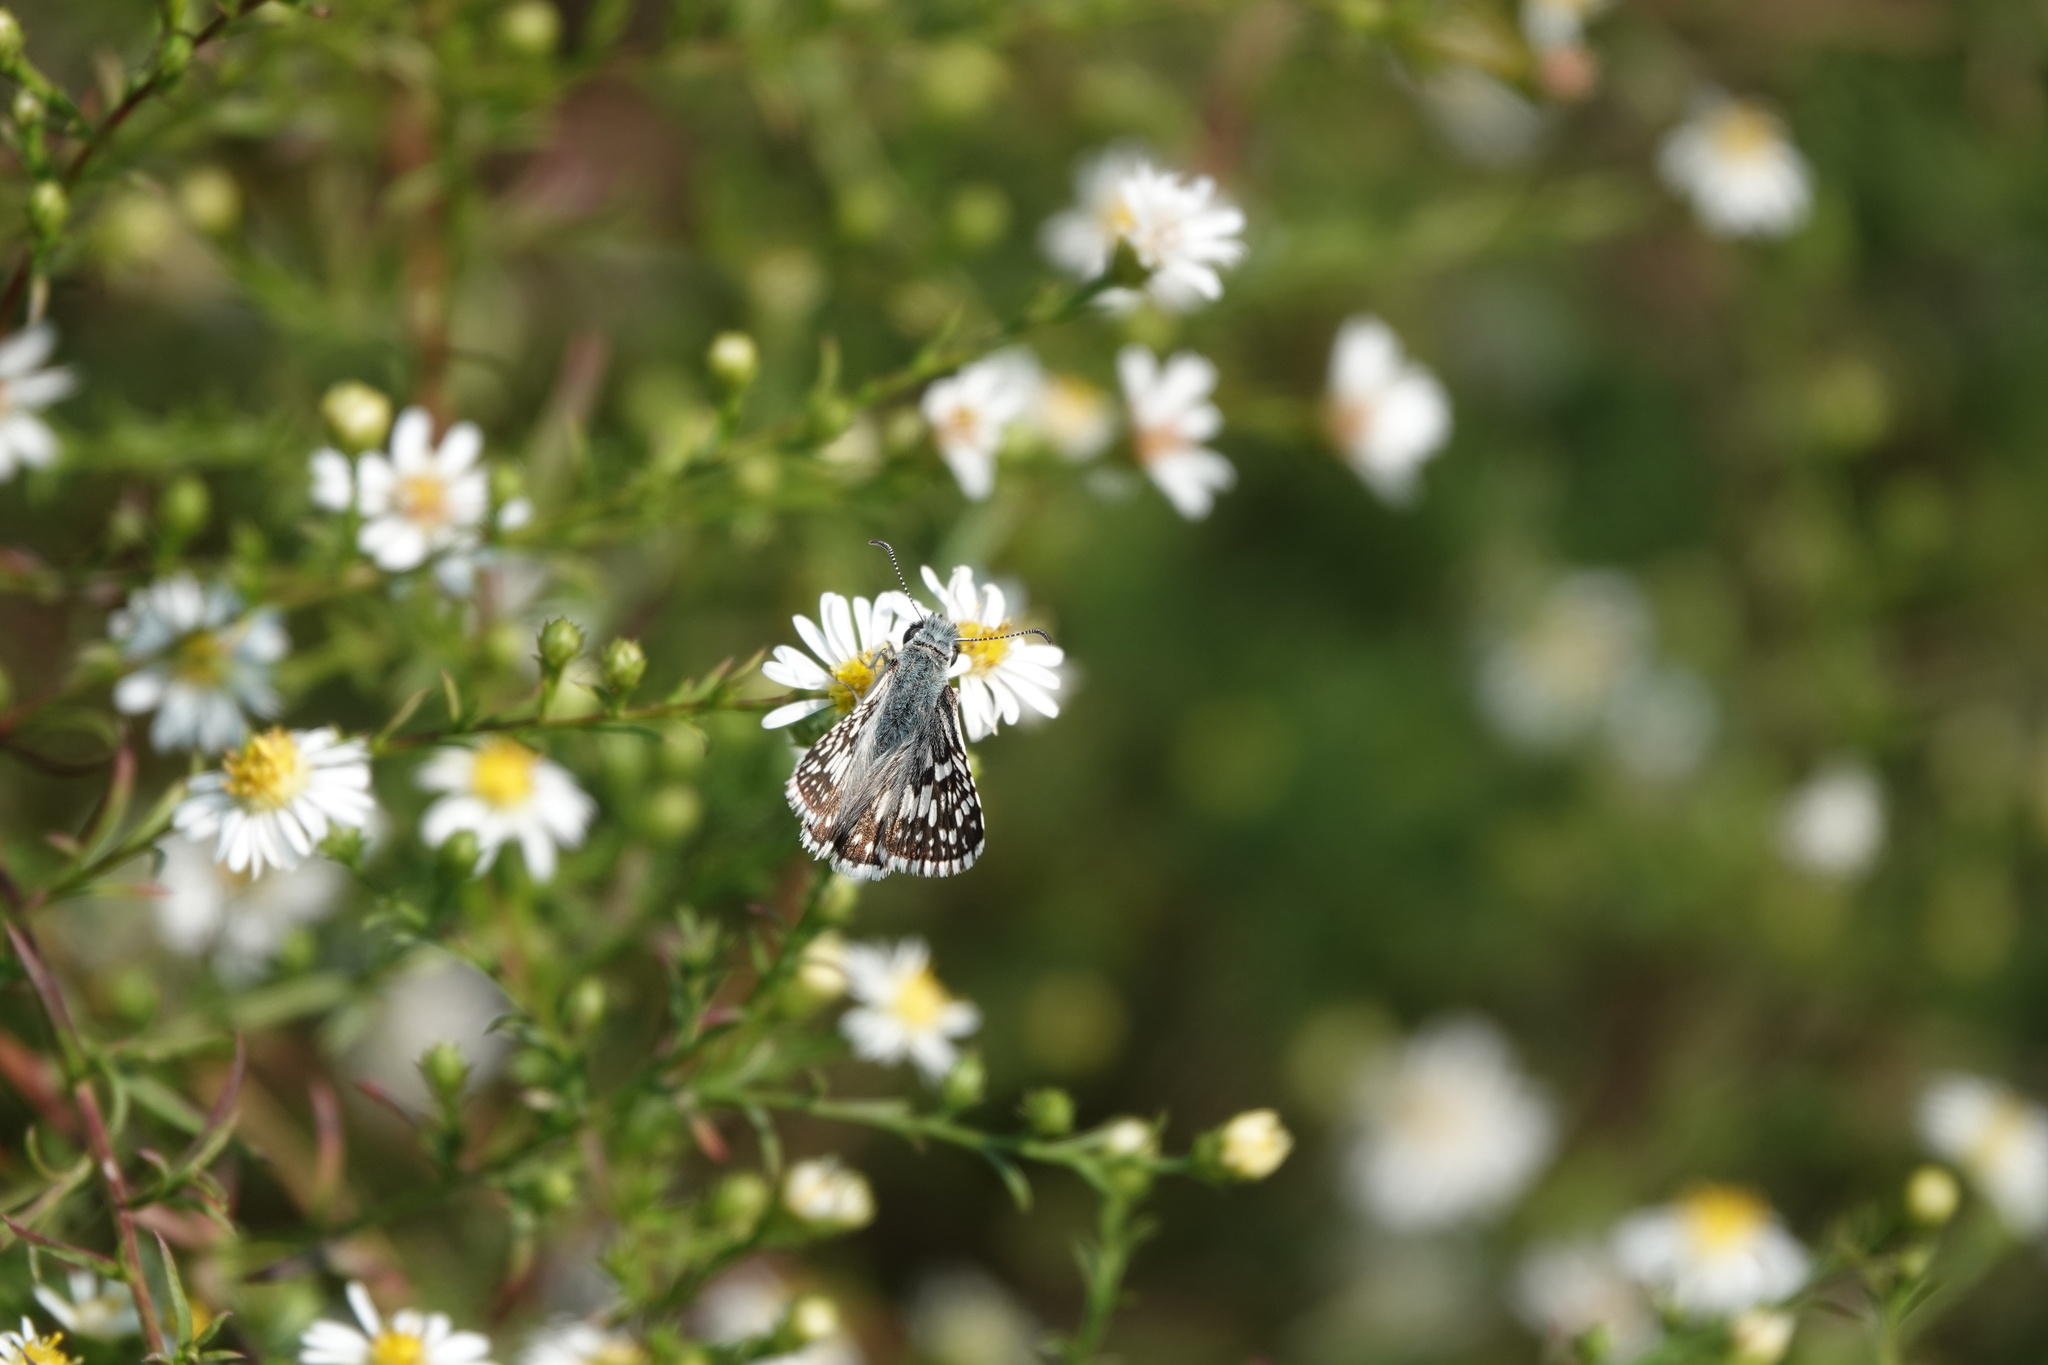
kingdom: Animalia
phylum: Arthropoda
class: Insecta
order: Lepidoptera
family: Hesperiidae
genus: Burnsius
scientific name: Burnsius communis
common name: Common checkered-skipper
